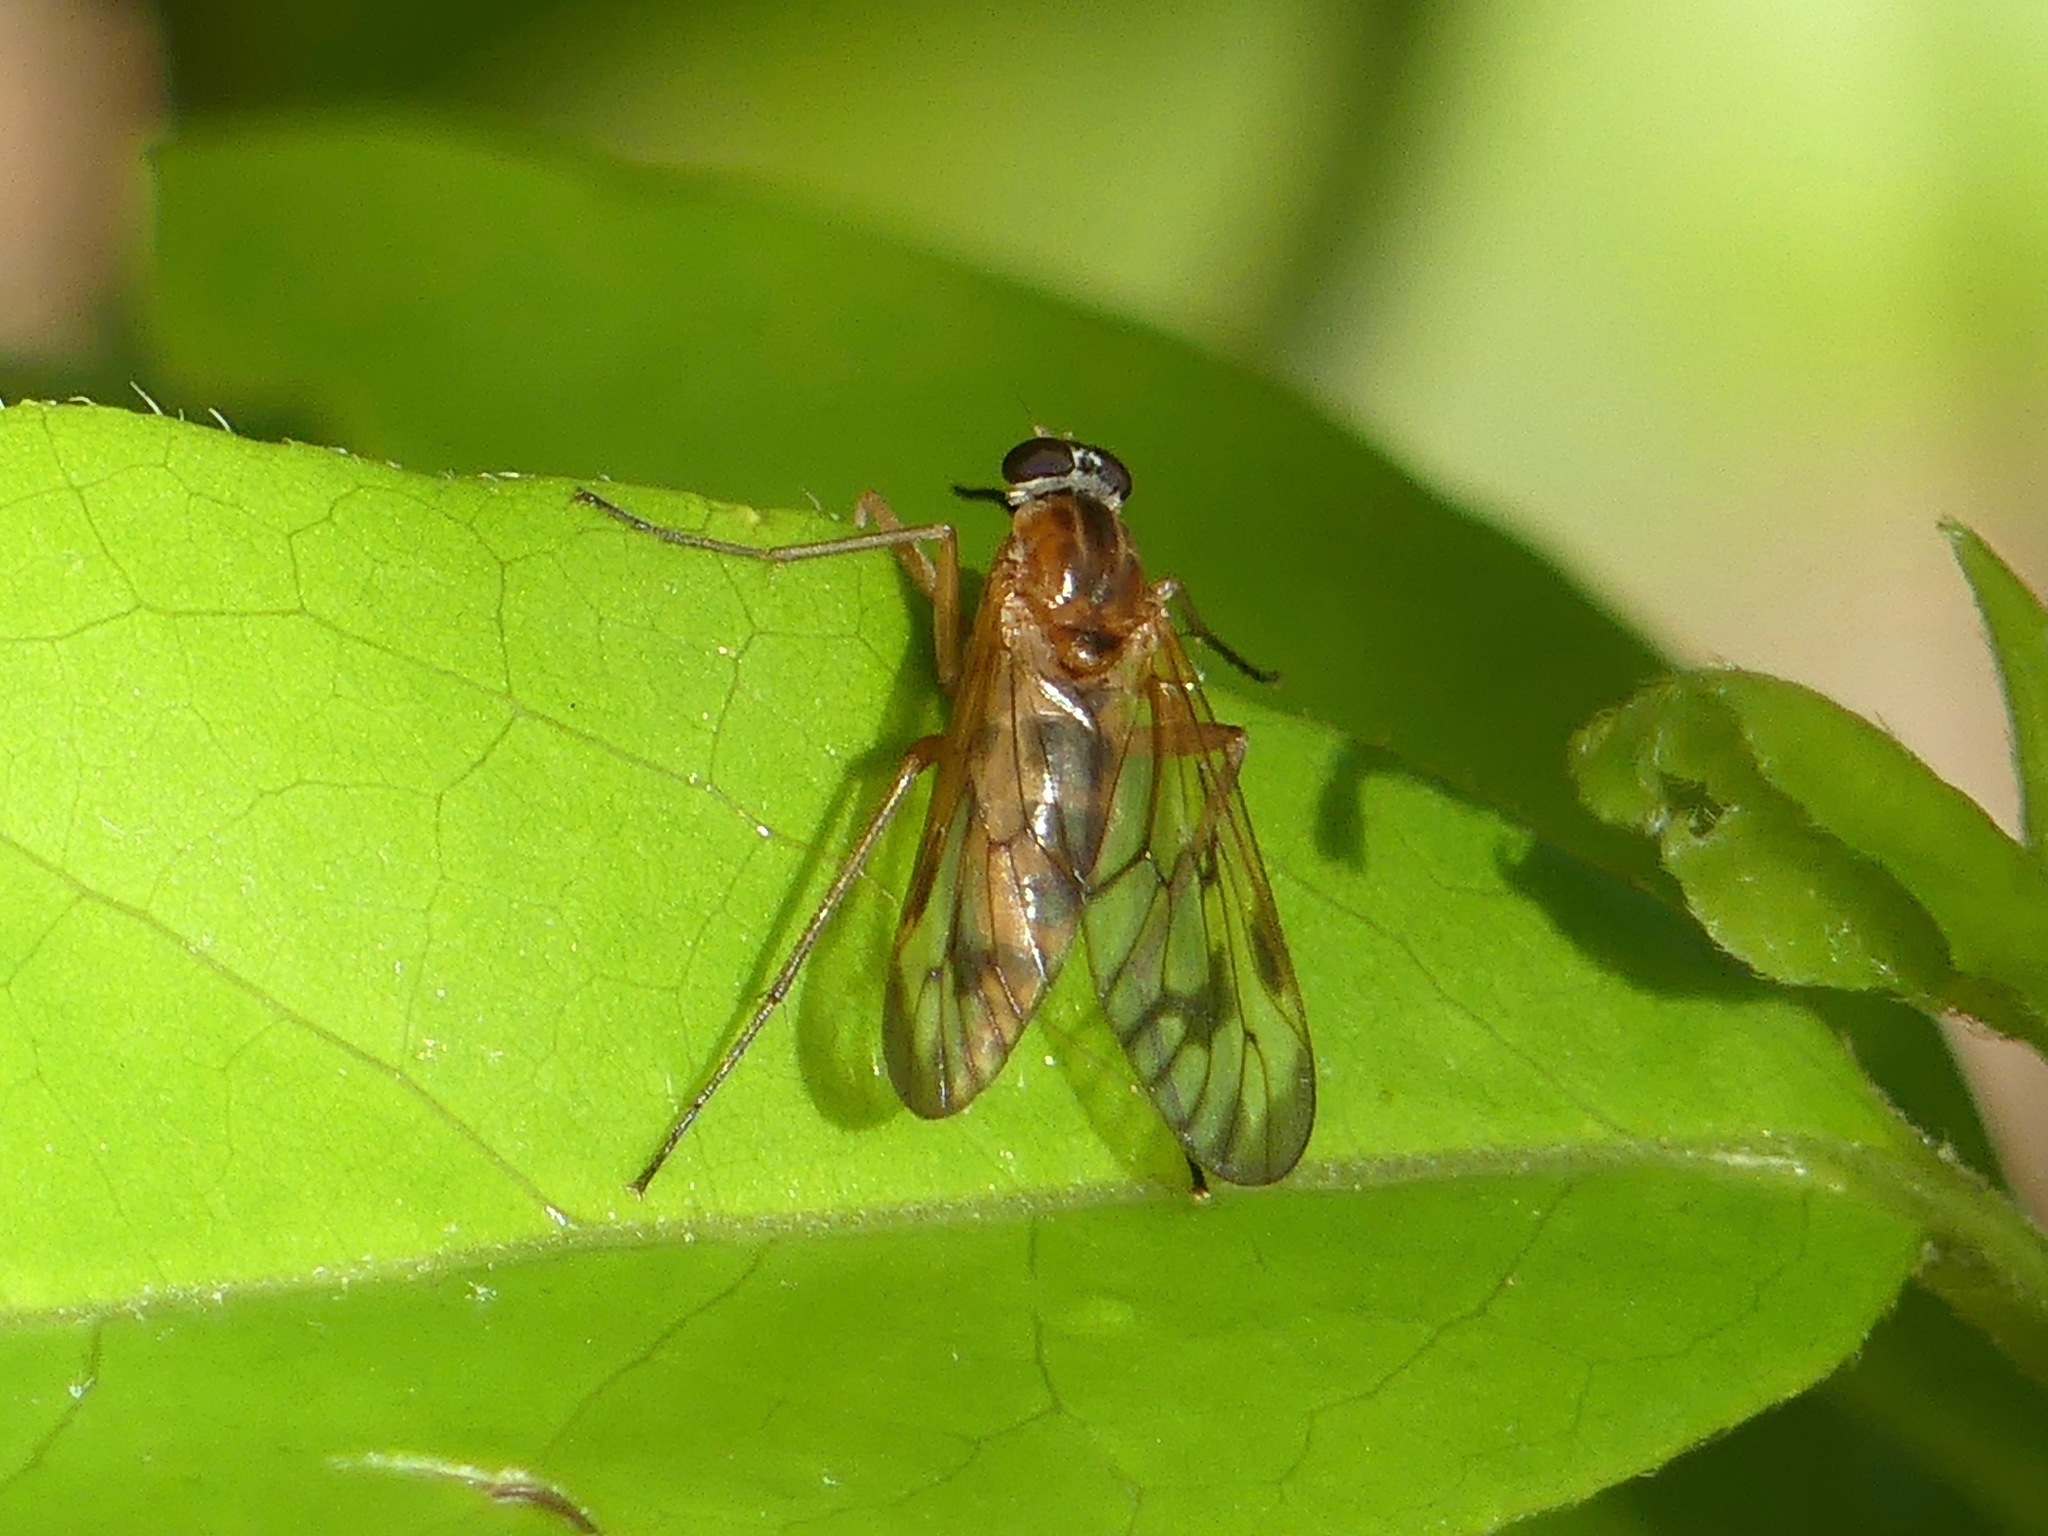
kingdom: Animalia
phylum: Arthropoda
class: Insecta
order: Diptera
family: Rhagionidae
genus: Rhagio
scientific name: Rhagio albicornis
